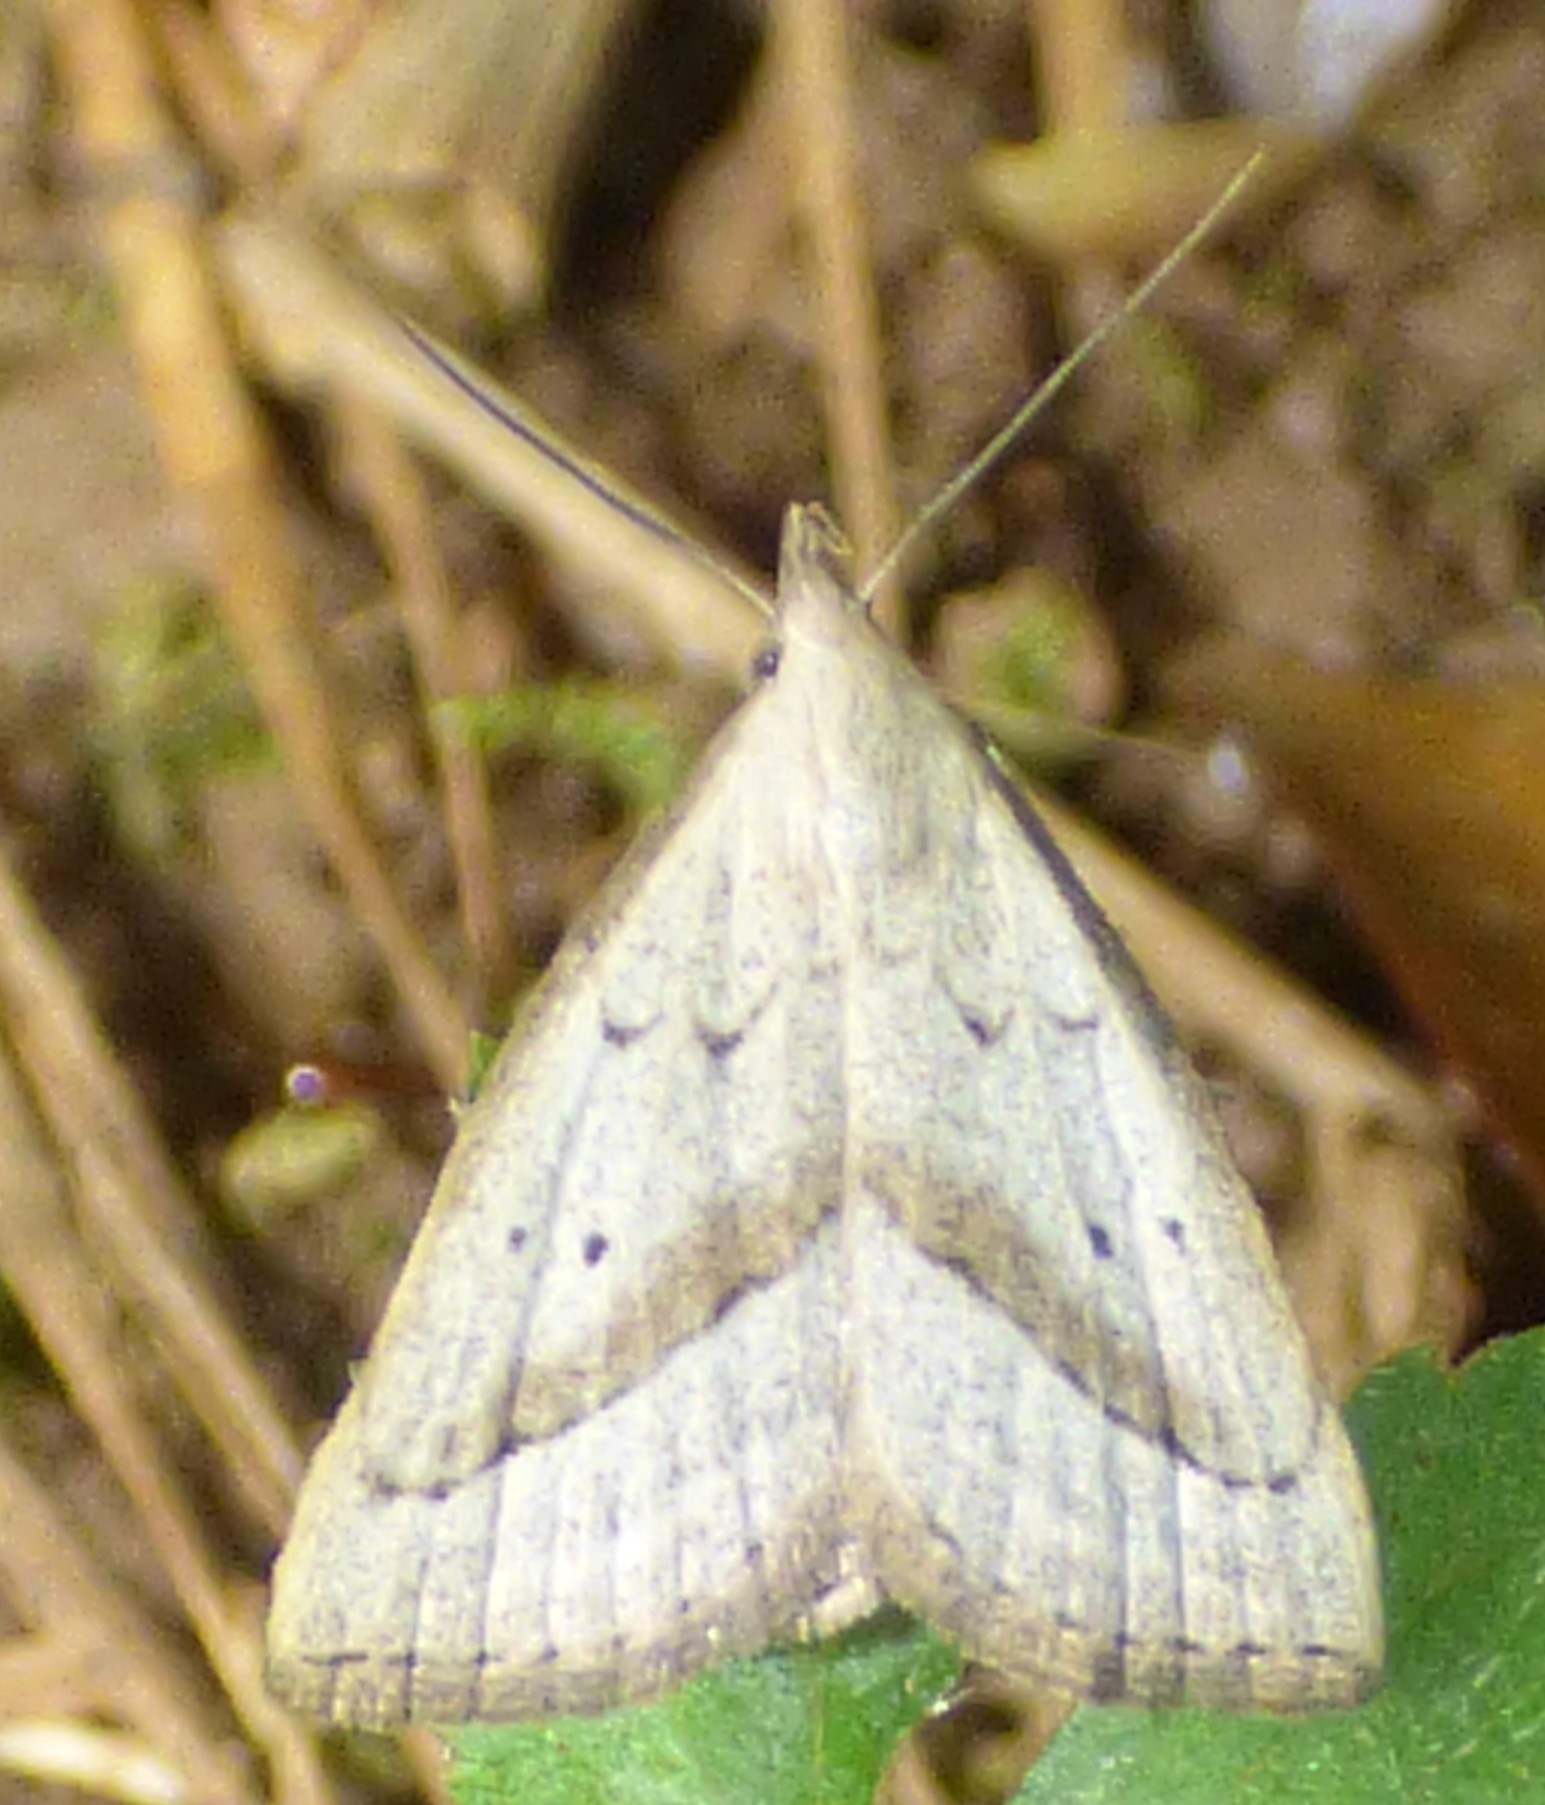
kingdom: Animalia
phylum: Arthropoda
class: Insecta
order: Lepidoptera
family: Erebidae
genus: Macrochilo
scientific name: Macrochilo hypocritalis
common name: Twin-dotted owlet
